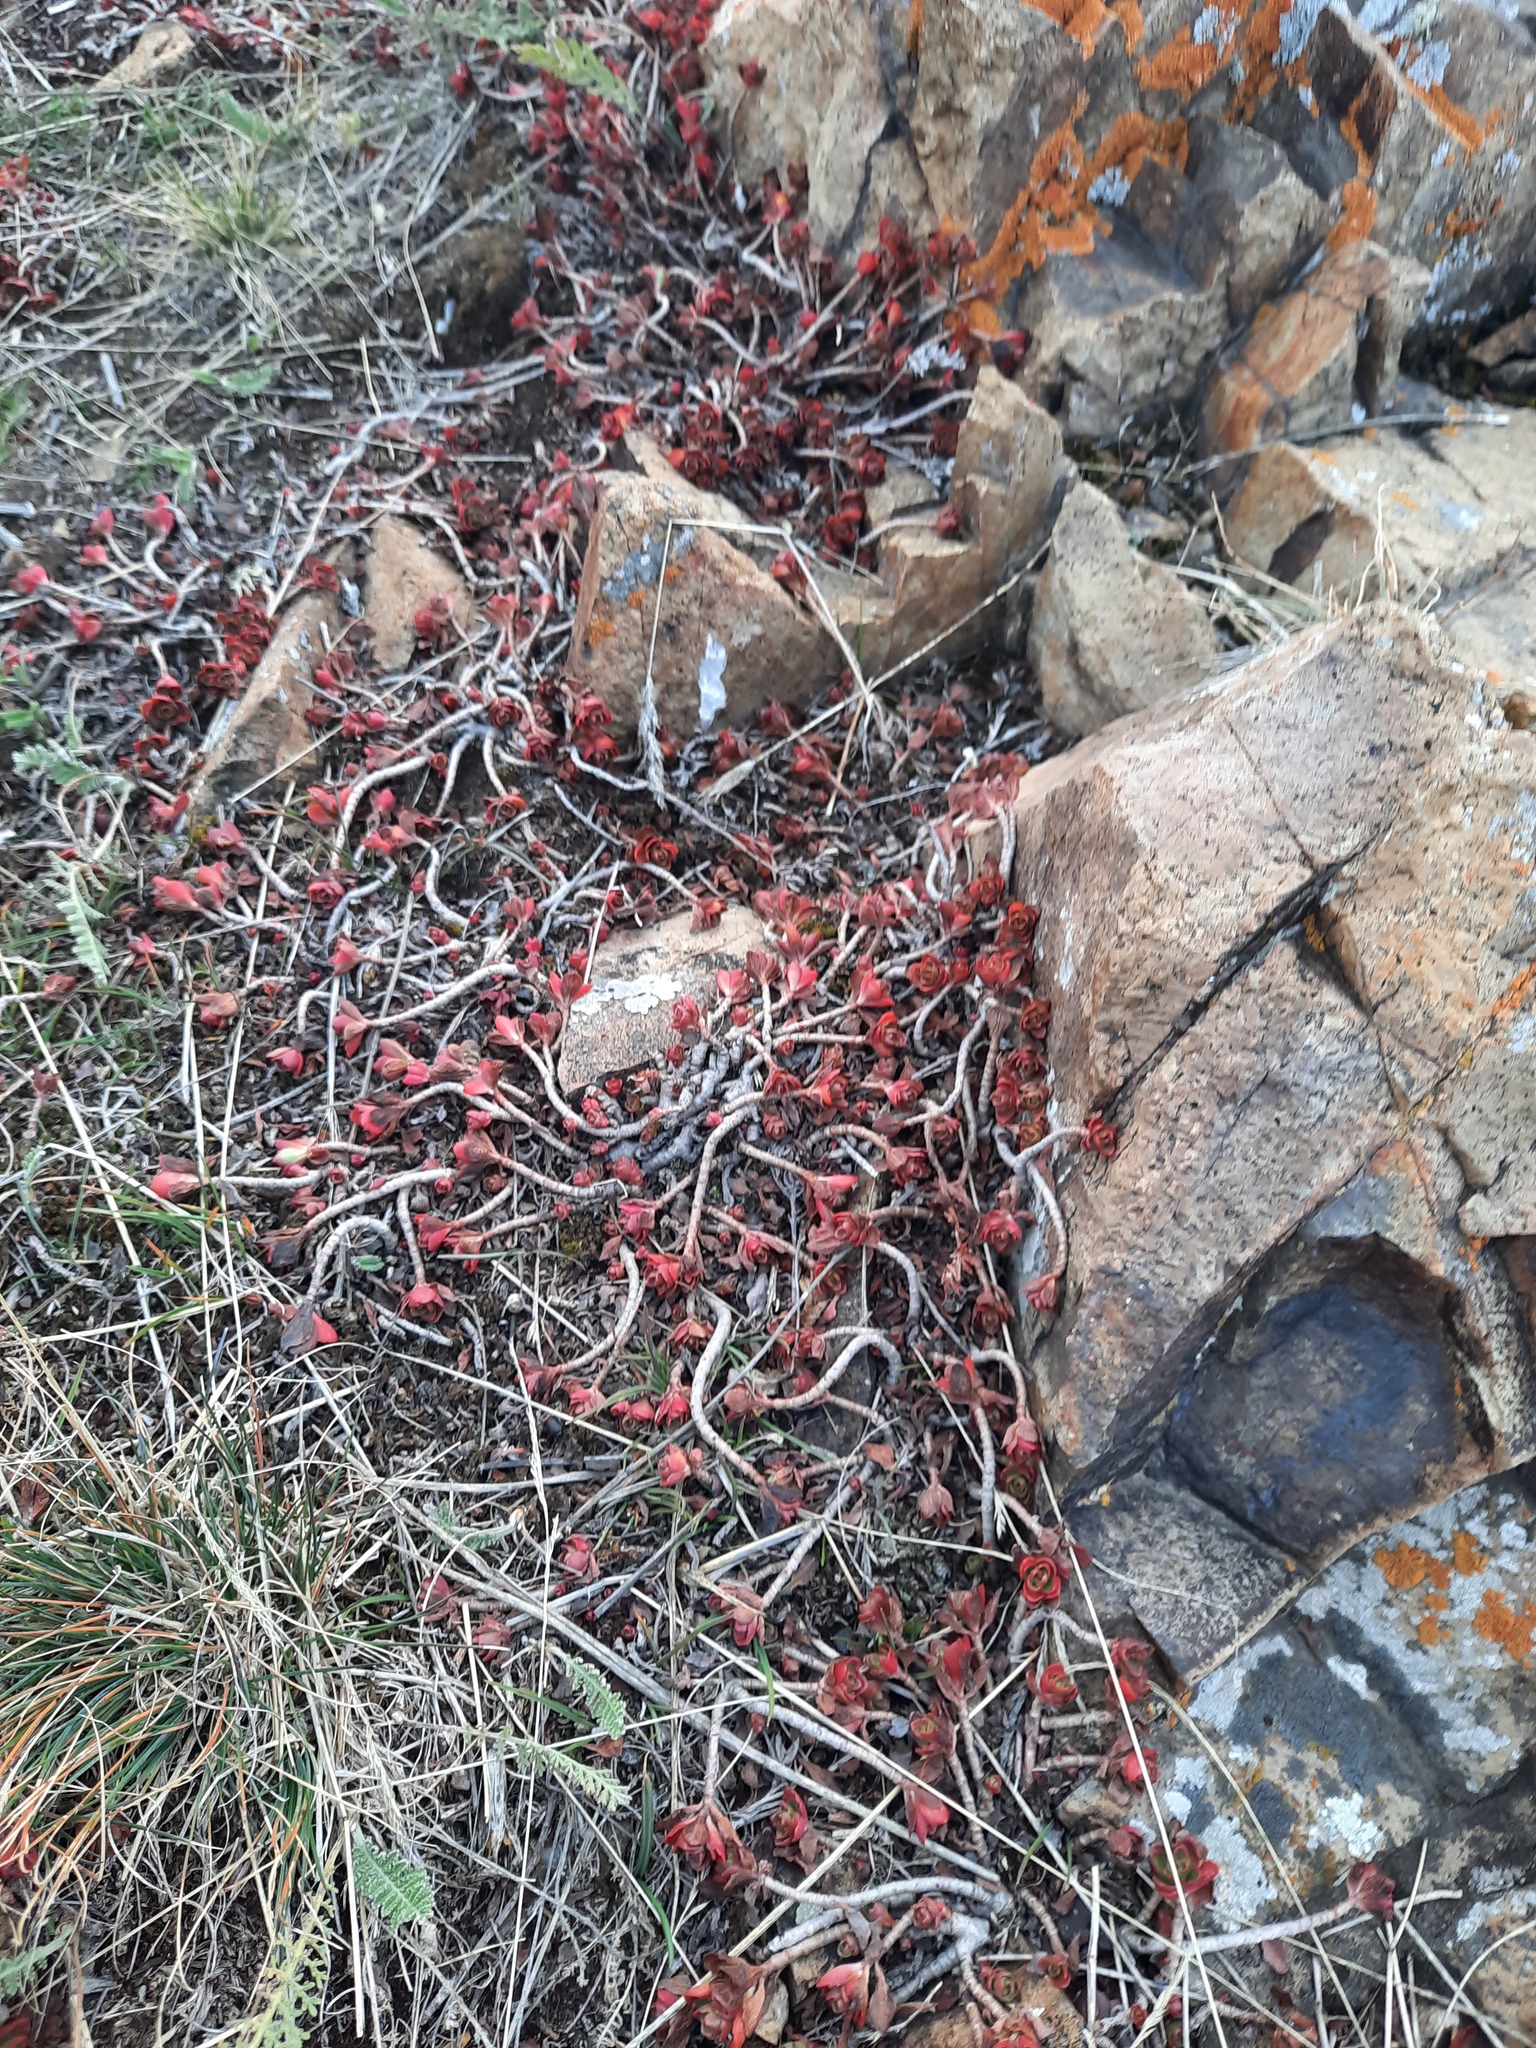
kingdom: Plantae
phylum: Tracheophyta
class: Magnoliopsida
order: Saxifragales
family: Crassulaceae
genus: Phedimus
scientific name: Phedimus spurius
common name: Caucasian stonecrop
